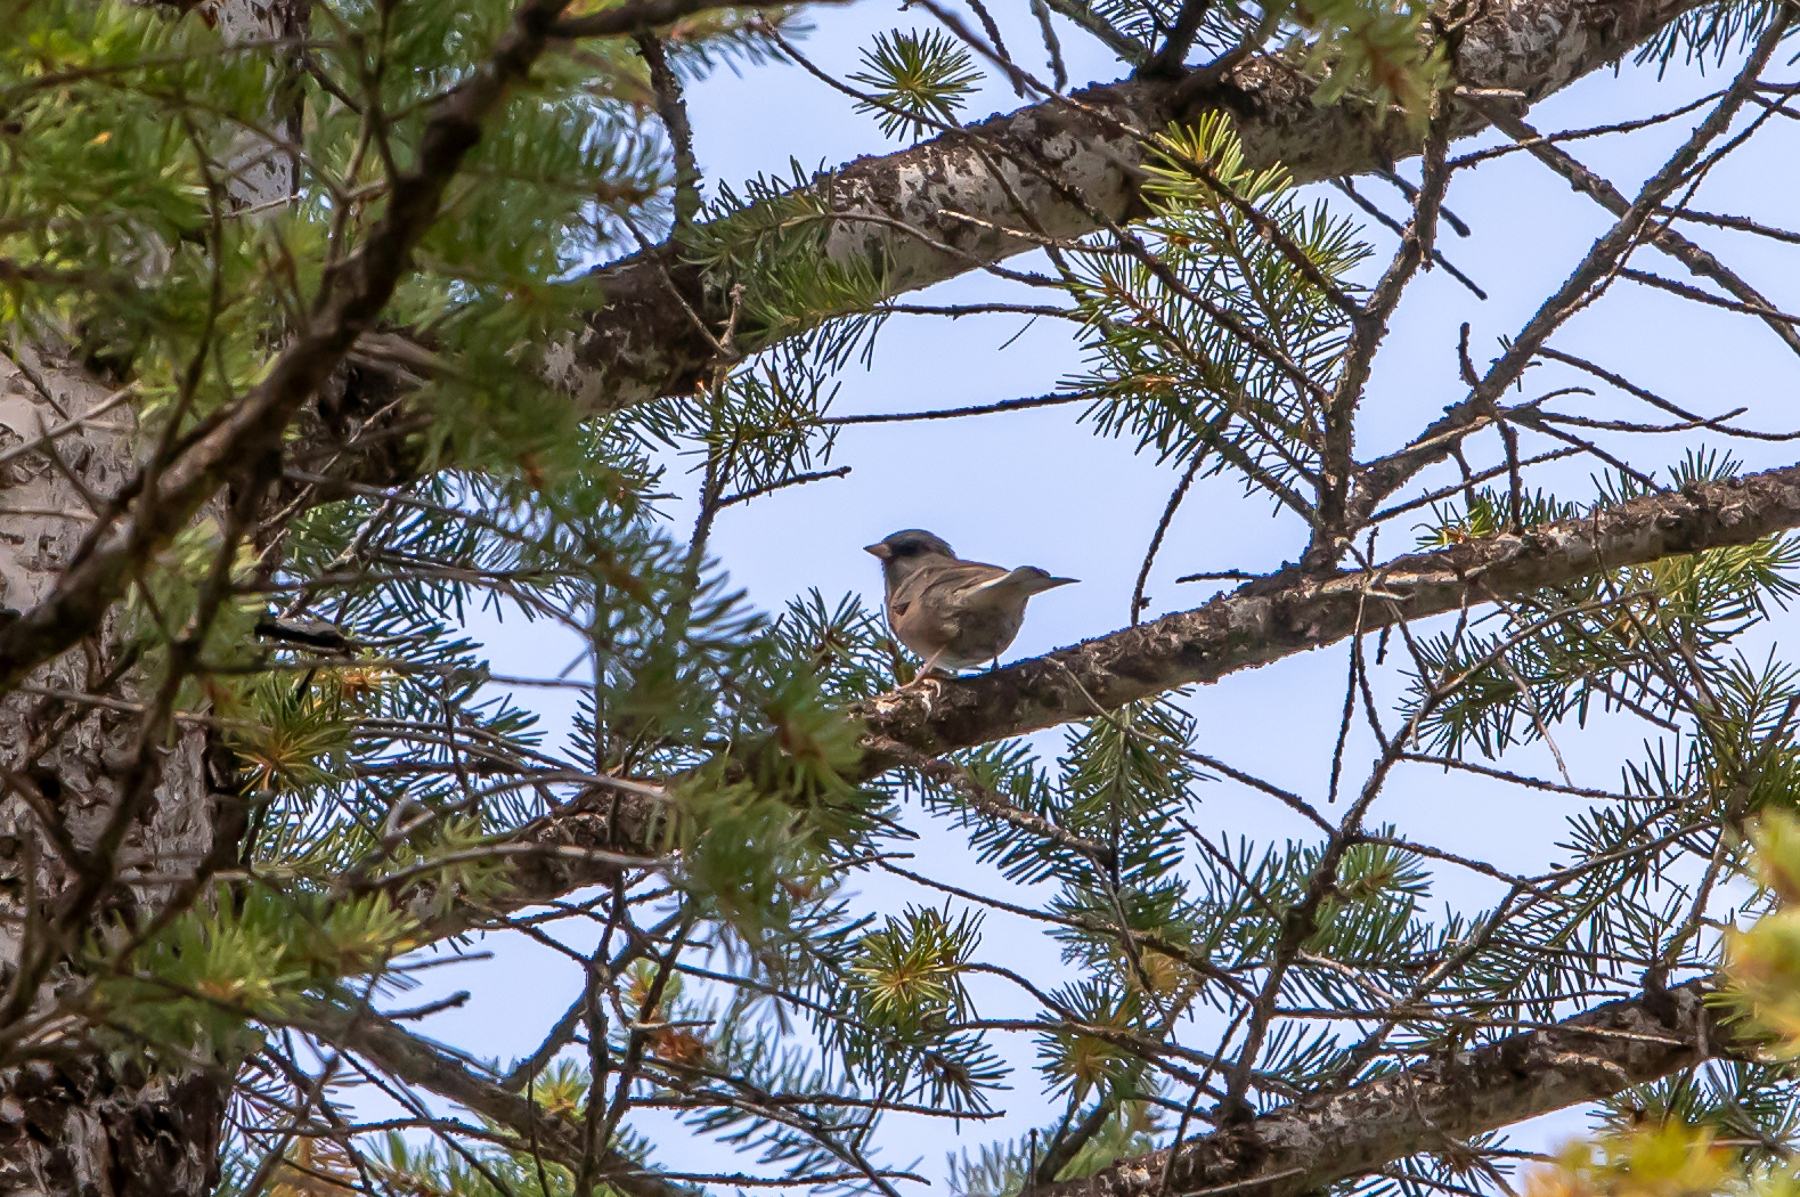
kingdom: Animalia
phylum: Chordata
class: Aves
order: Passeriformes
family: Passerellidae
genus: Junco
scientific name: Junco hyemalis
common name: Dark-eyed junco
